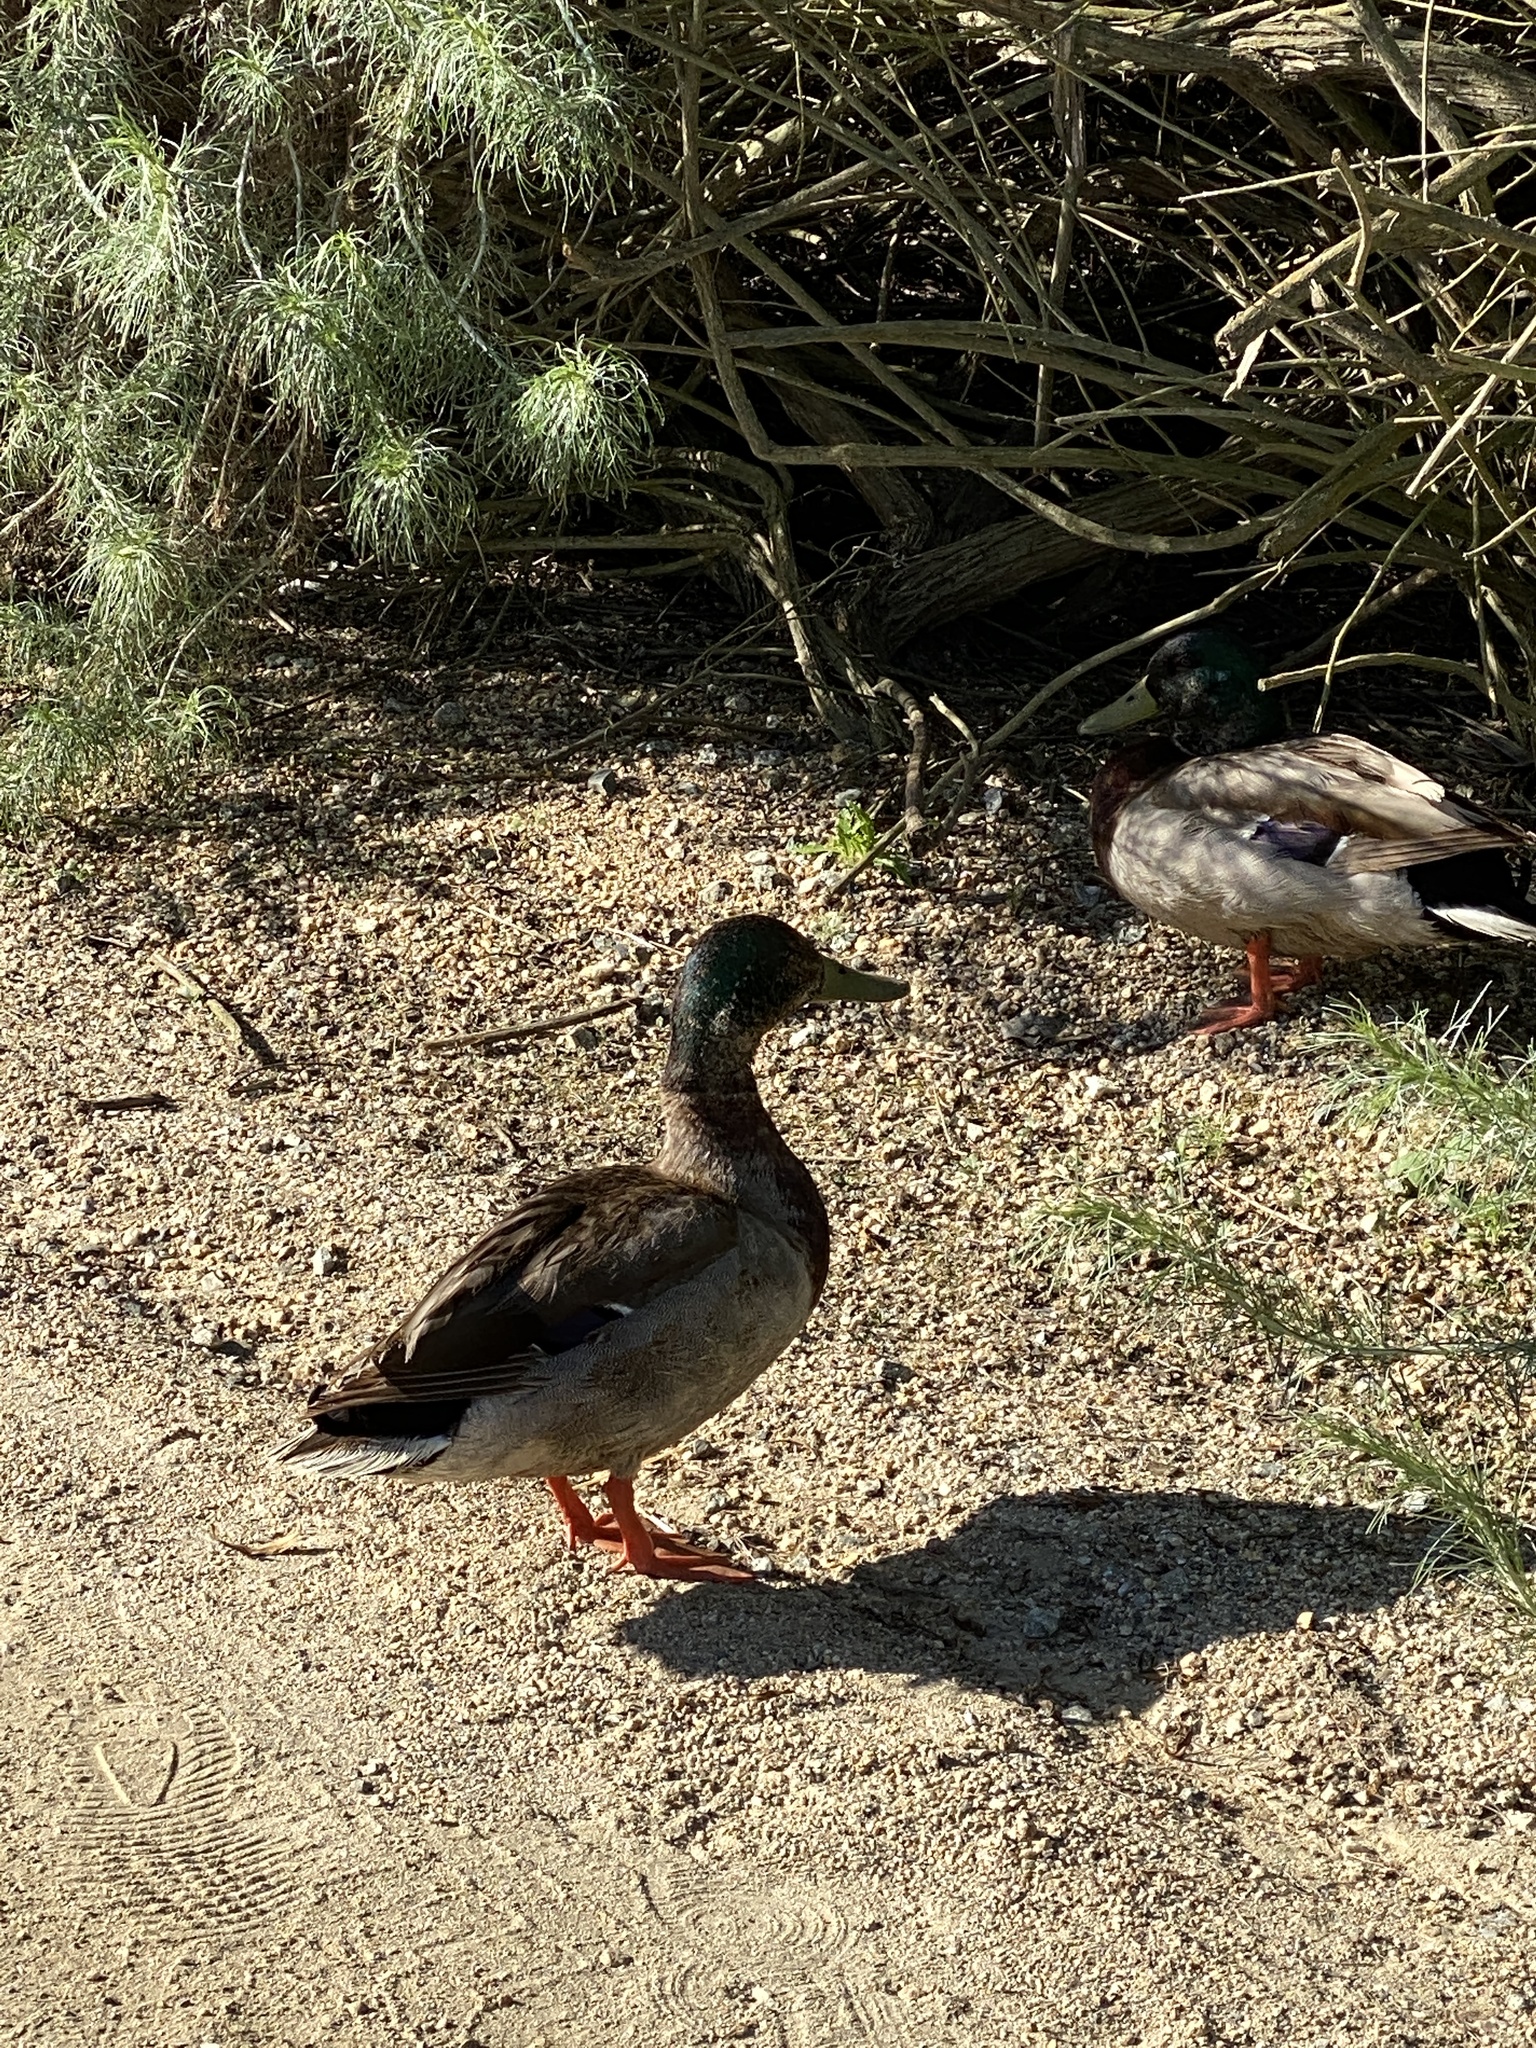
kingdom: Animalia
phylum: Chordata
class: Aves
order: Anseriformes
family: Anatidae
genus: Anas
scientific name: Anas platyrhynchos
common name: Mallard
